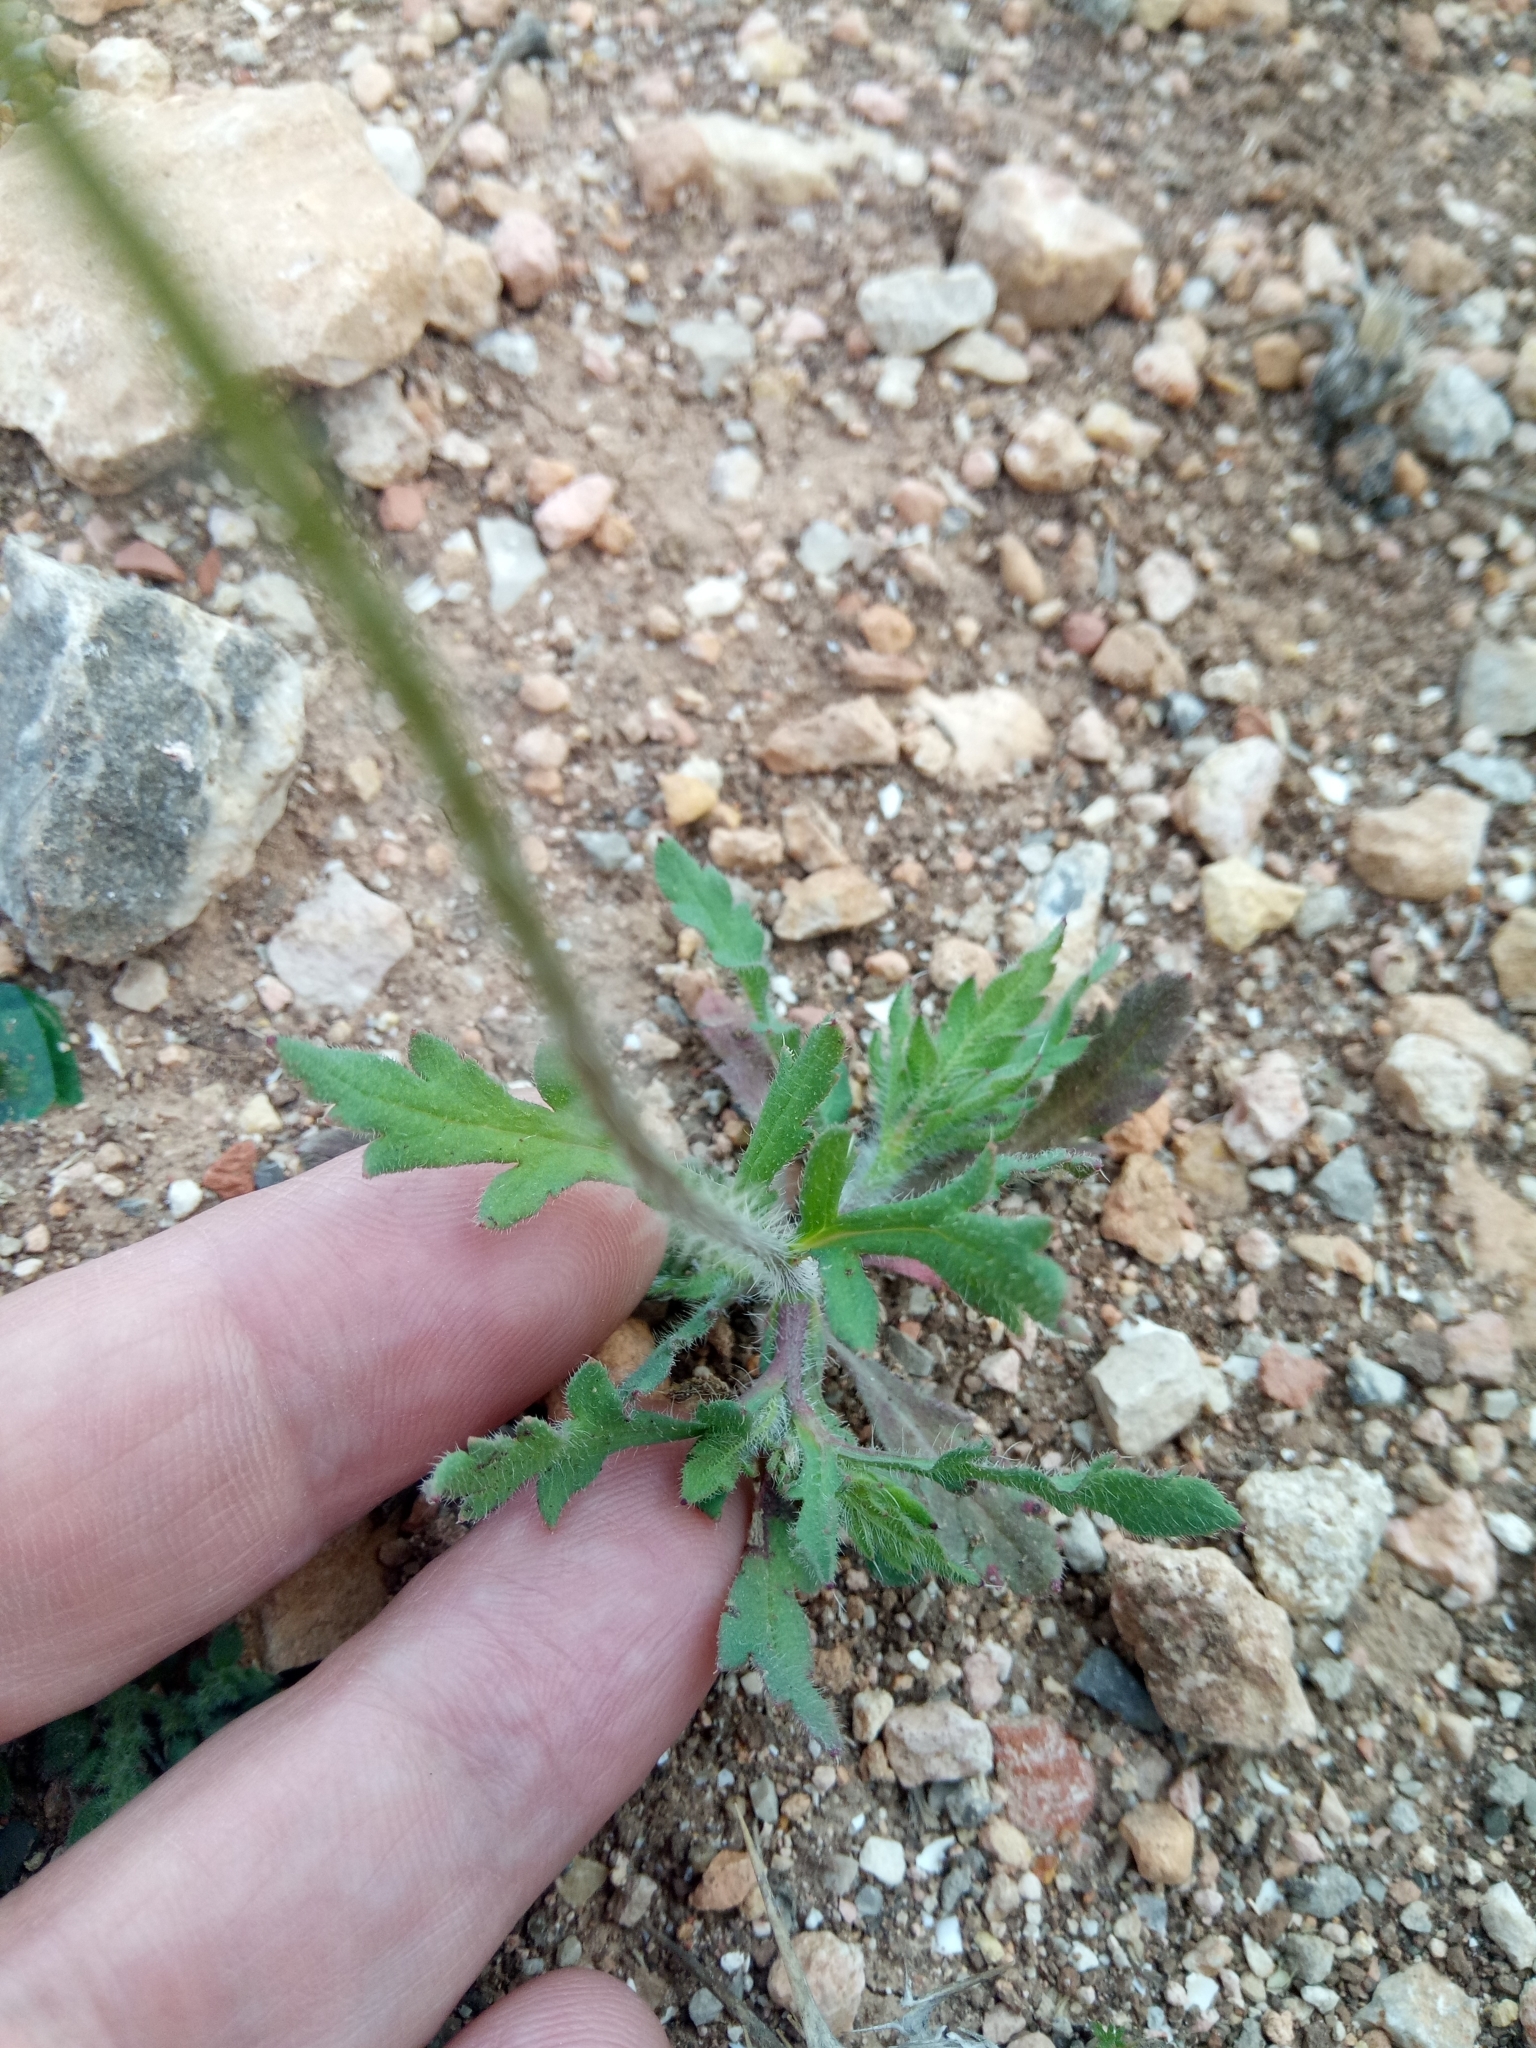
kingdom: Plantae
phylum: Tracheophyta
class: Magnoliopsida
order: Ranunculales
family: Papaveraceae
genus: Papaver
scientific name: Papaver rhoeas
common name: Corn poppy
